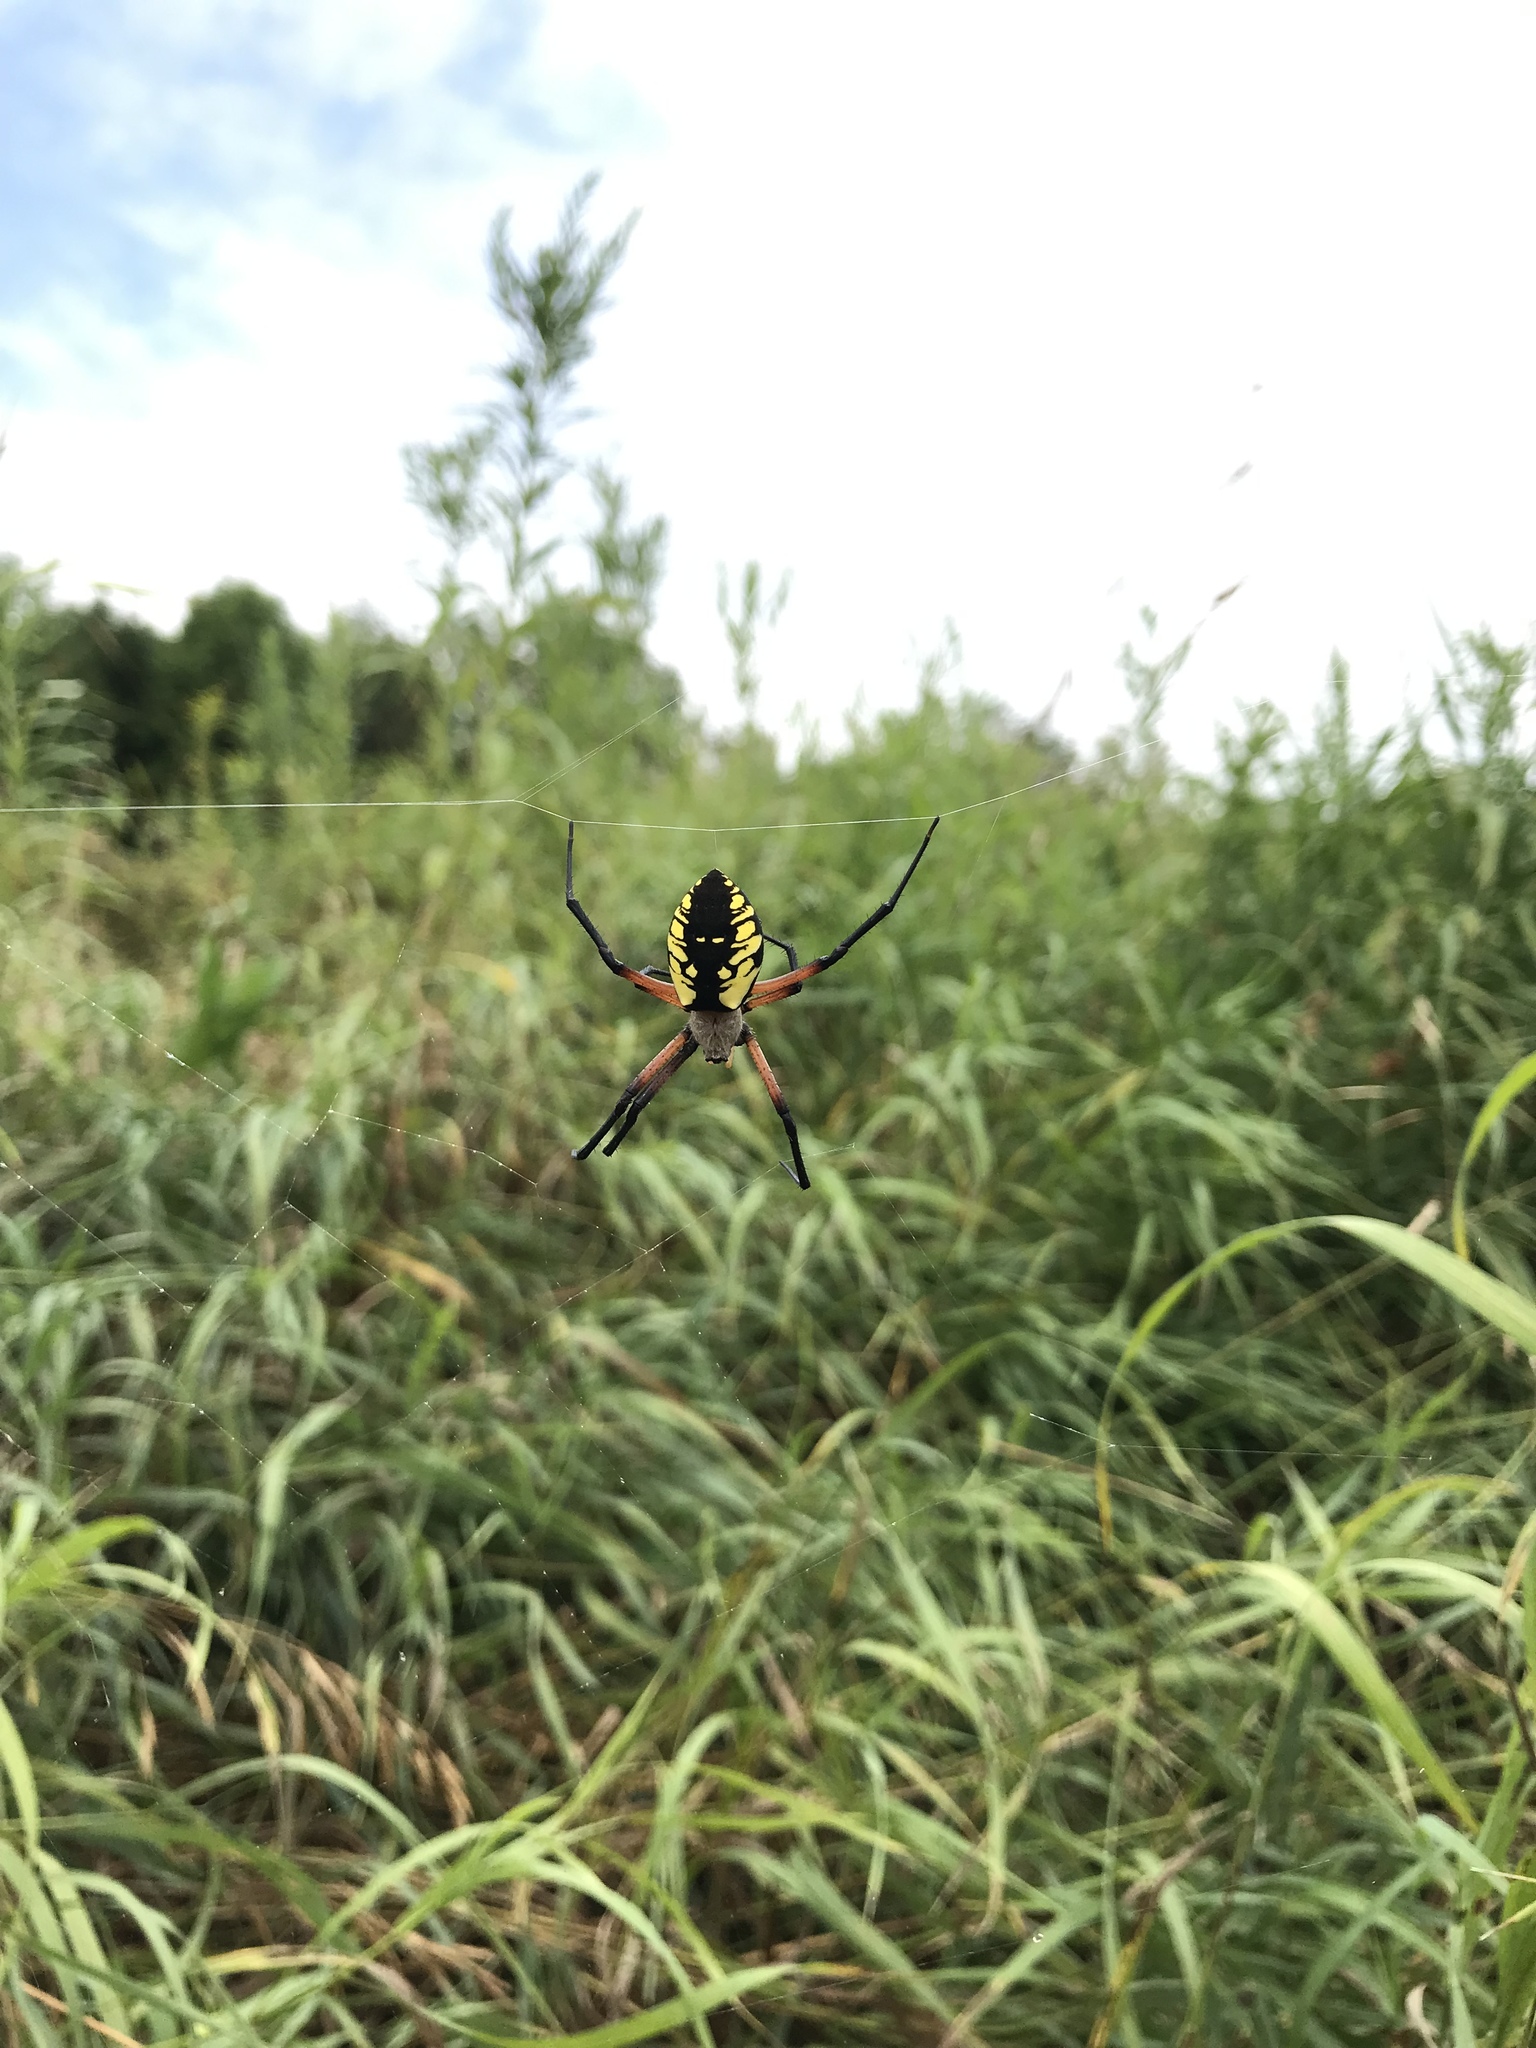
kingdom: Animalia
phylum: Arthropoda
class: Arachnida
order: Araneae
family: Araneidae
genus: Argiope
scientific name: Argiope aurantia
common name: Orb weavers
